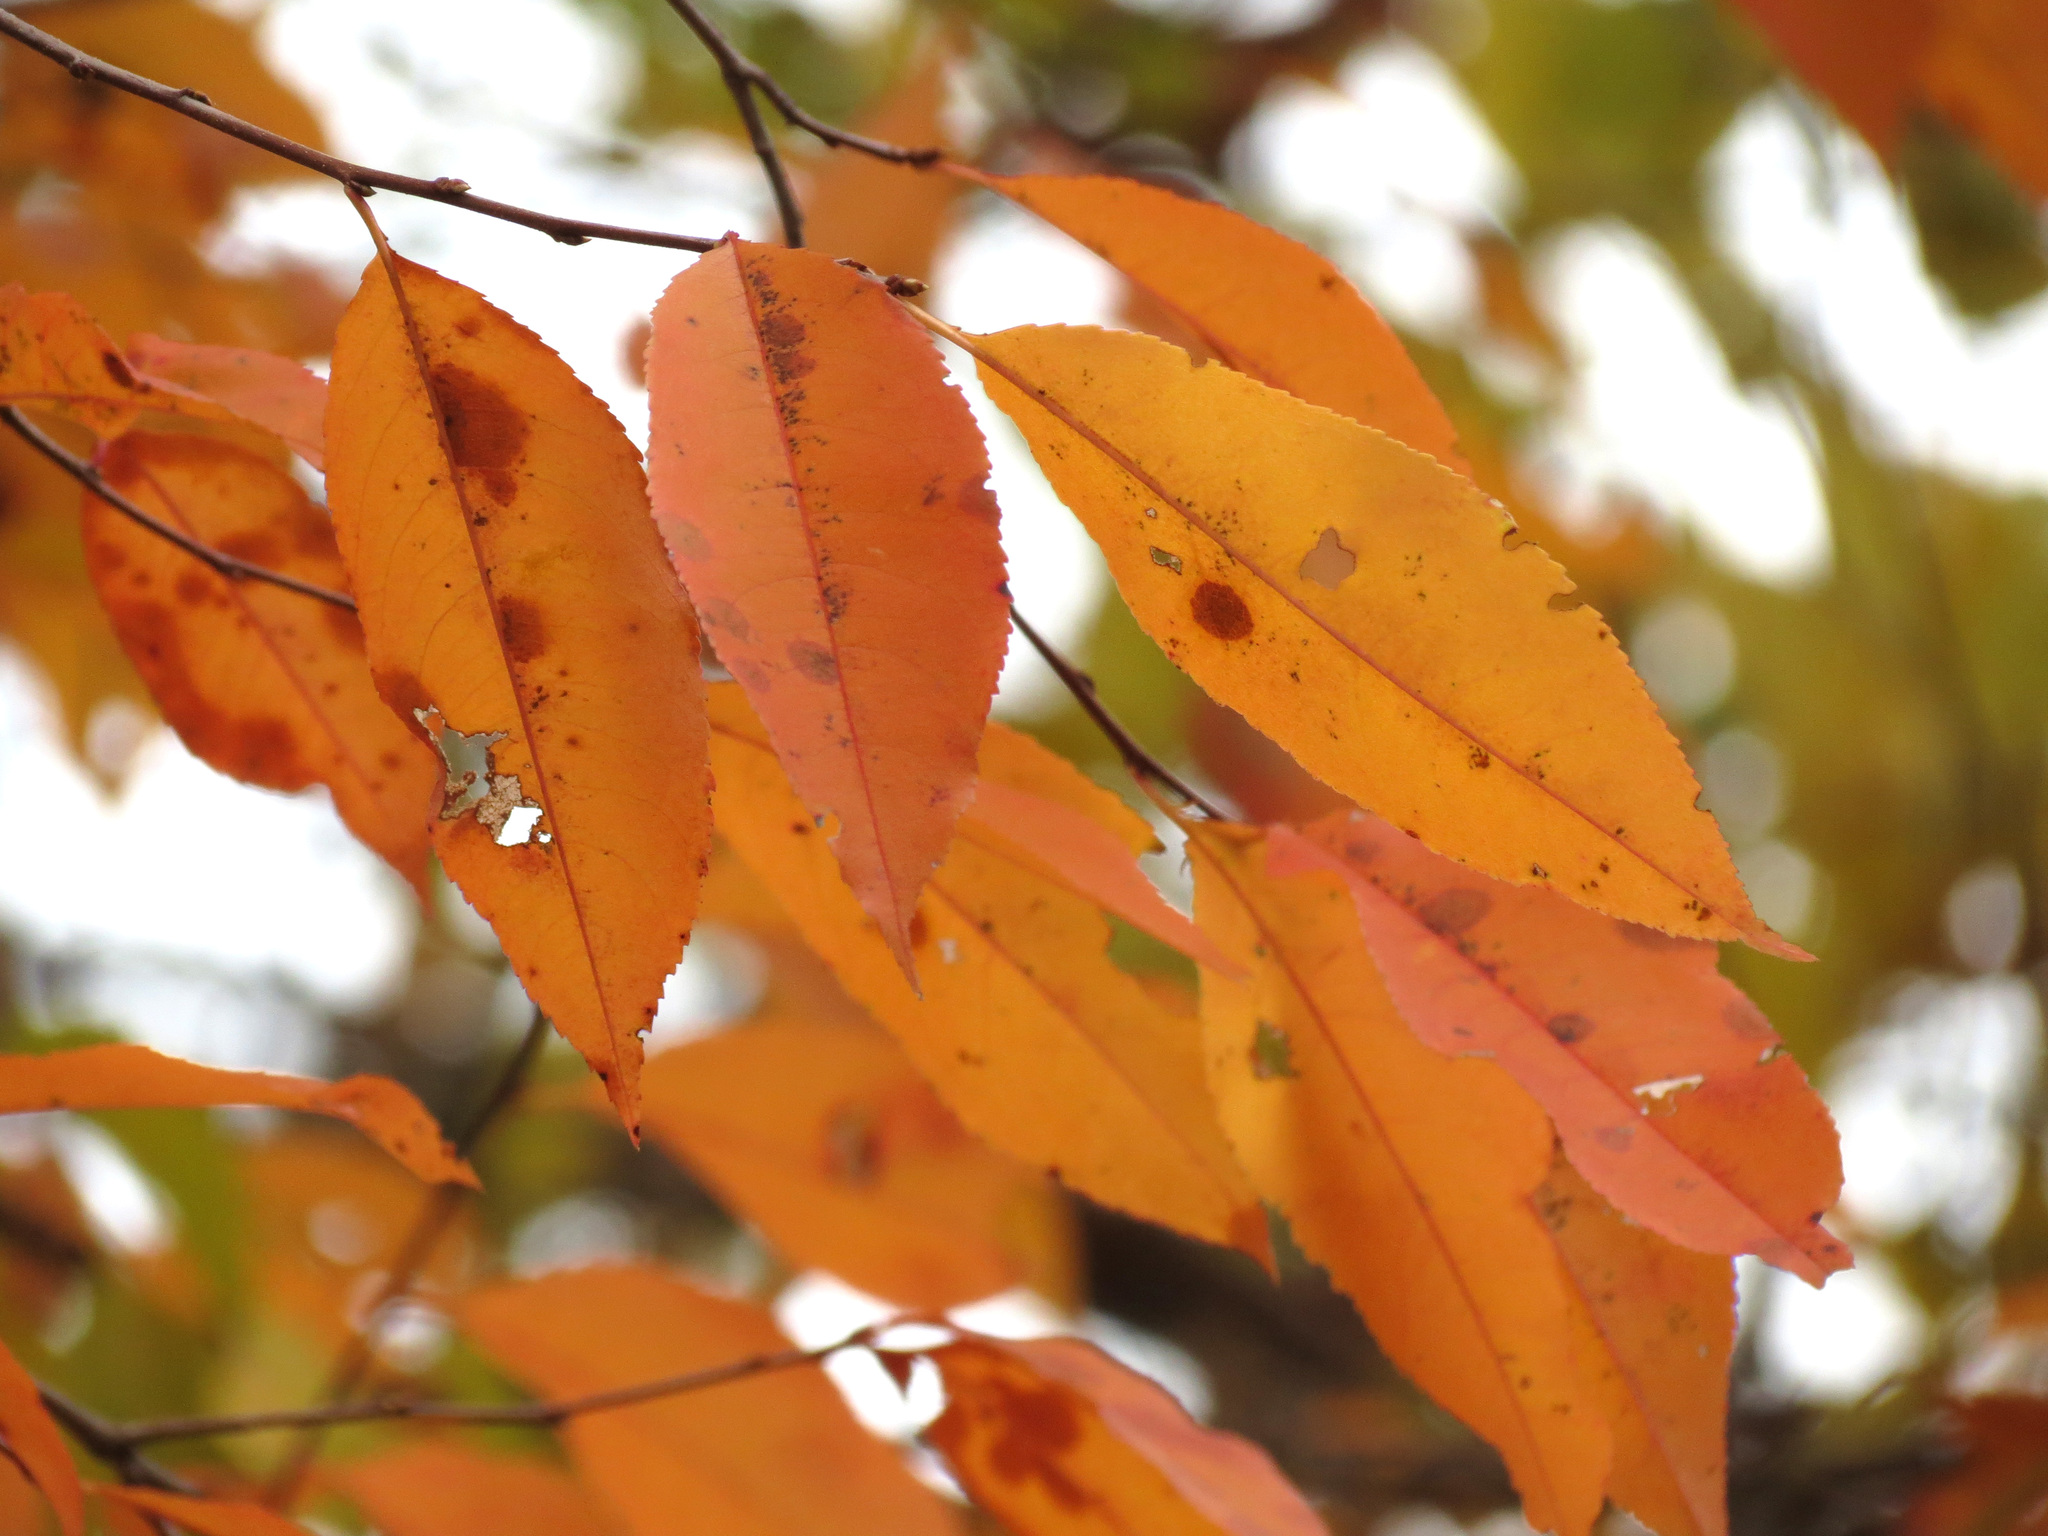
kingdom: Plantae
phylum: Tracheophyta
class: Magnoliopsida
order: Rosales
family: Rosaceae
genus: Prunus
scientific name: Prunus serotina
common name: Black cherry
